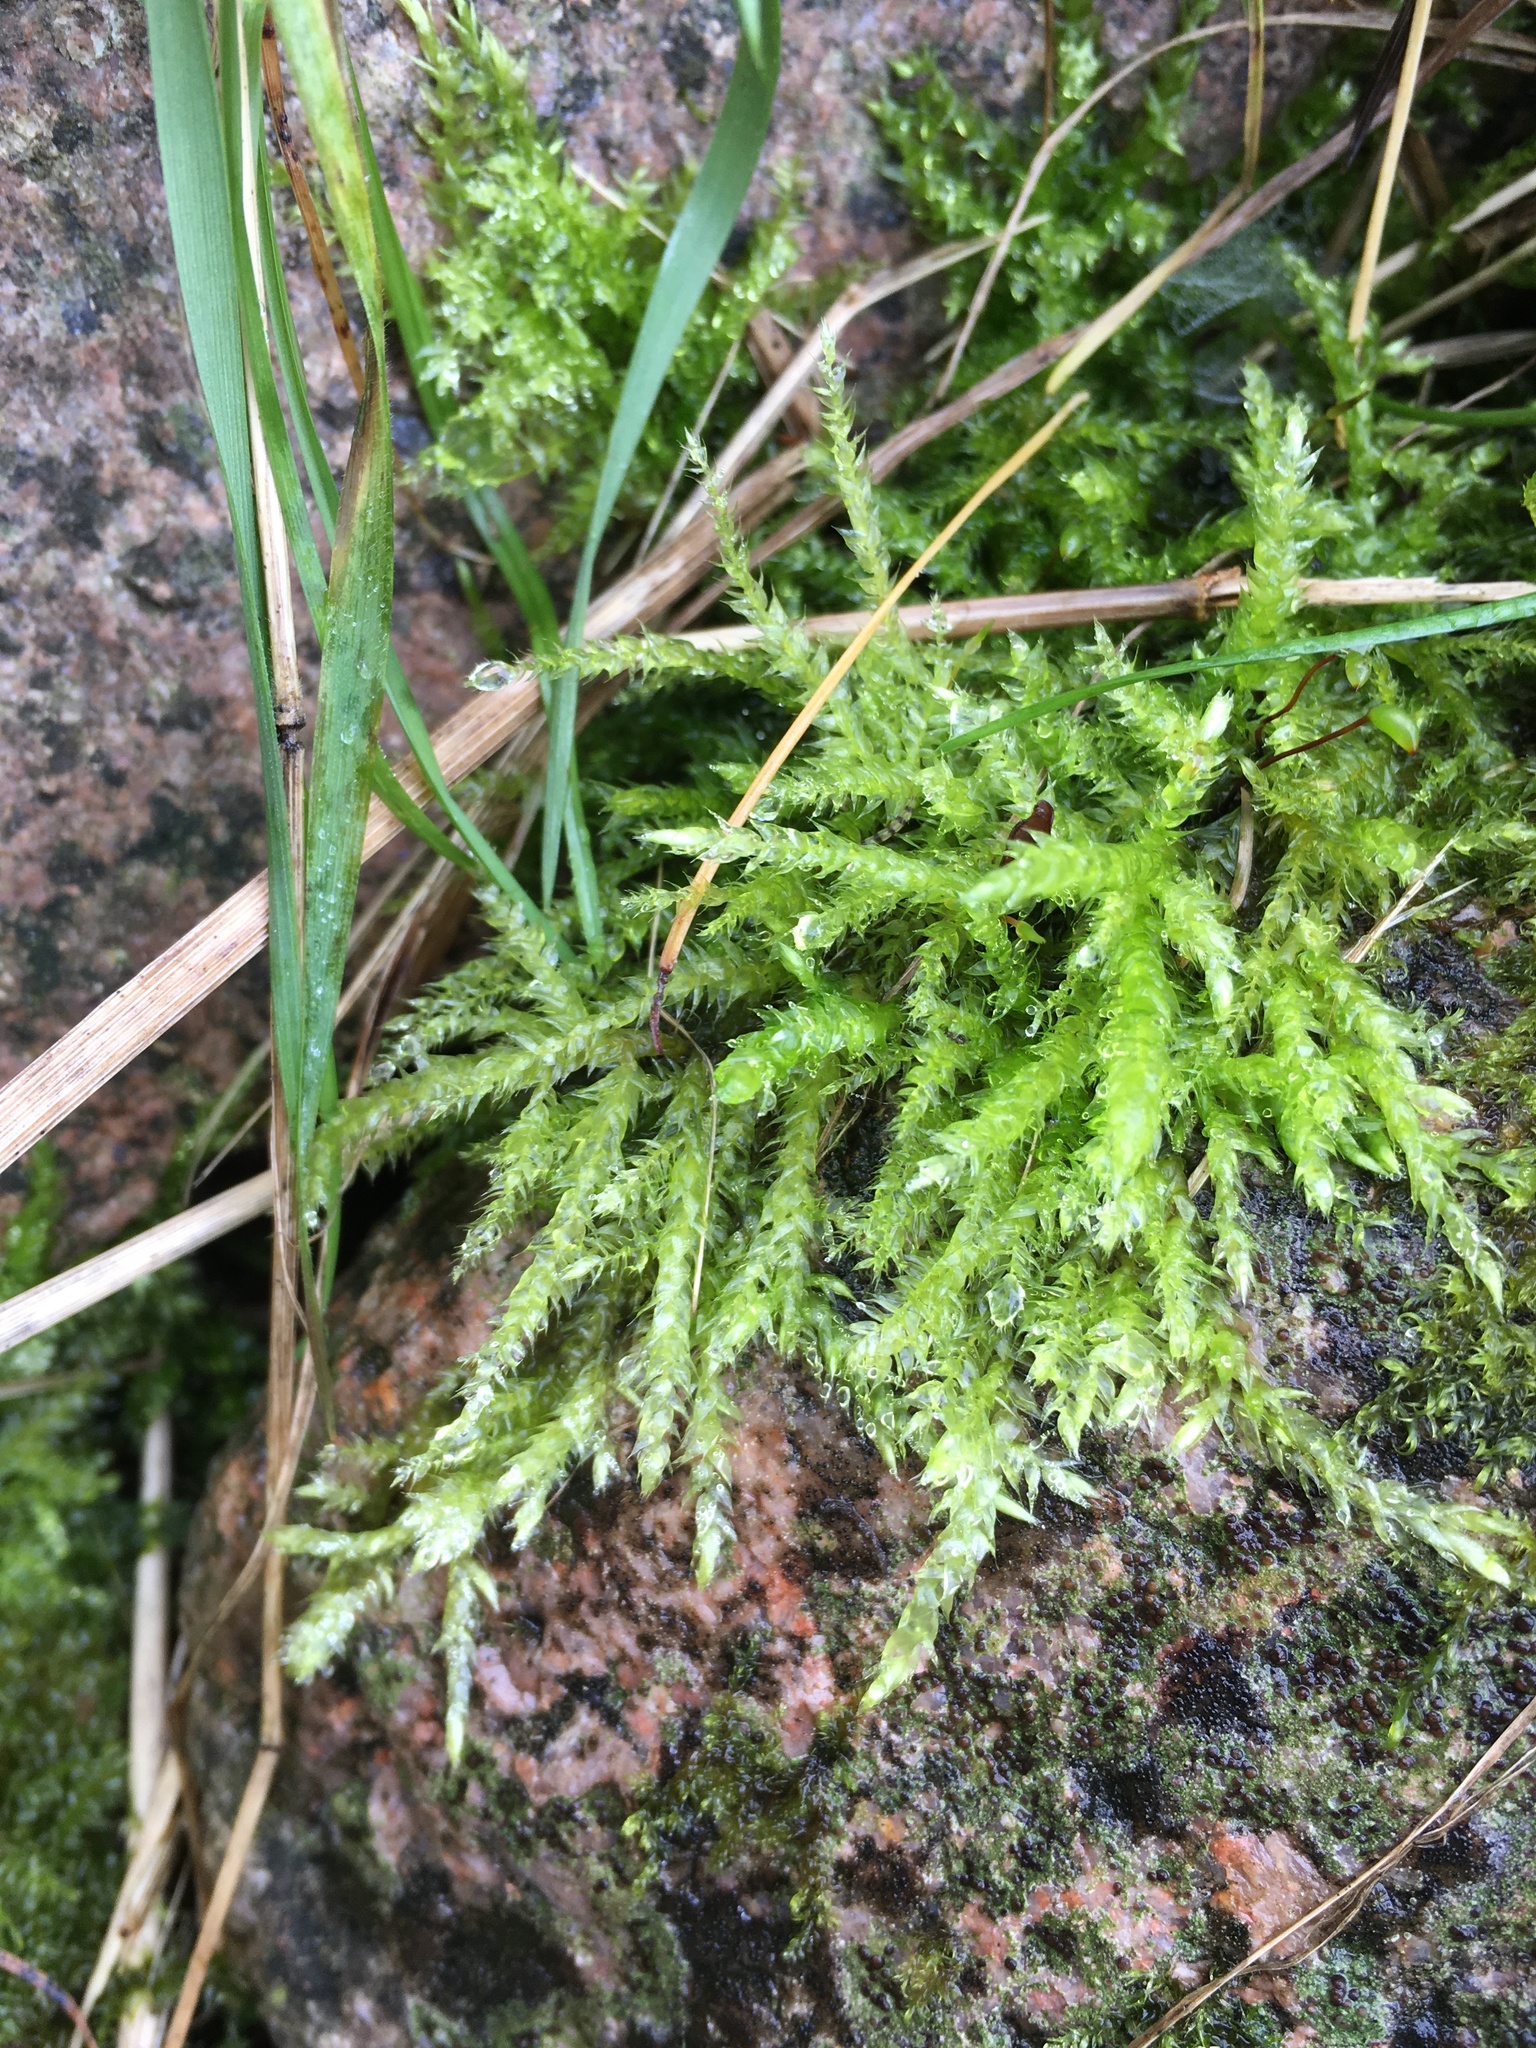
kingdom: Plantae
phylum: Bryophyta
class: Bryopsida
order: Hypnales
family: Brachytheciaceae
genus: Brachythecium
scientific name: Brachythecium rutabulum
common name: Rough-stalked feather-moss
